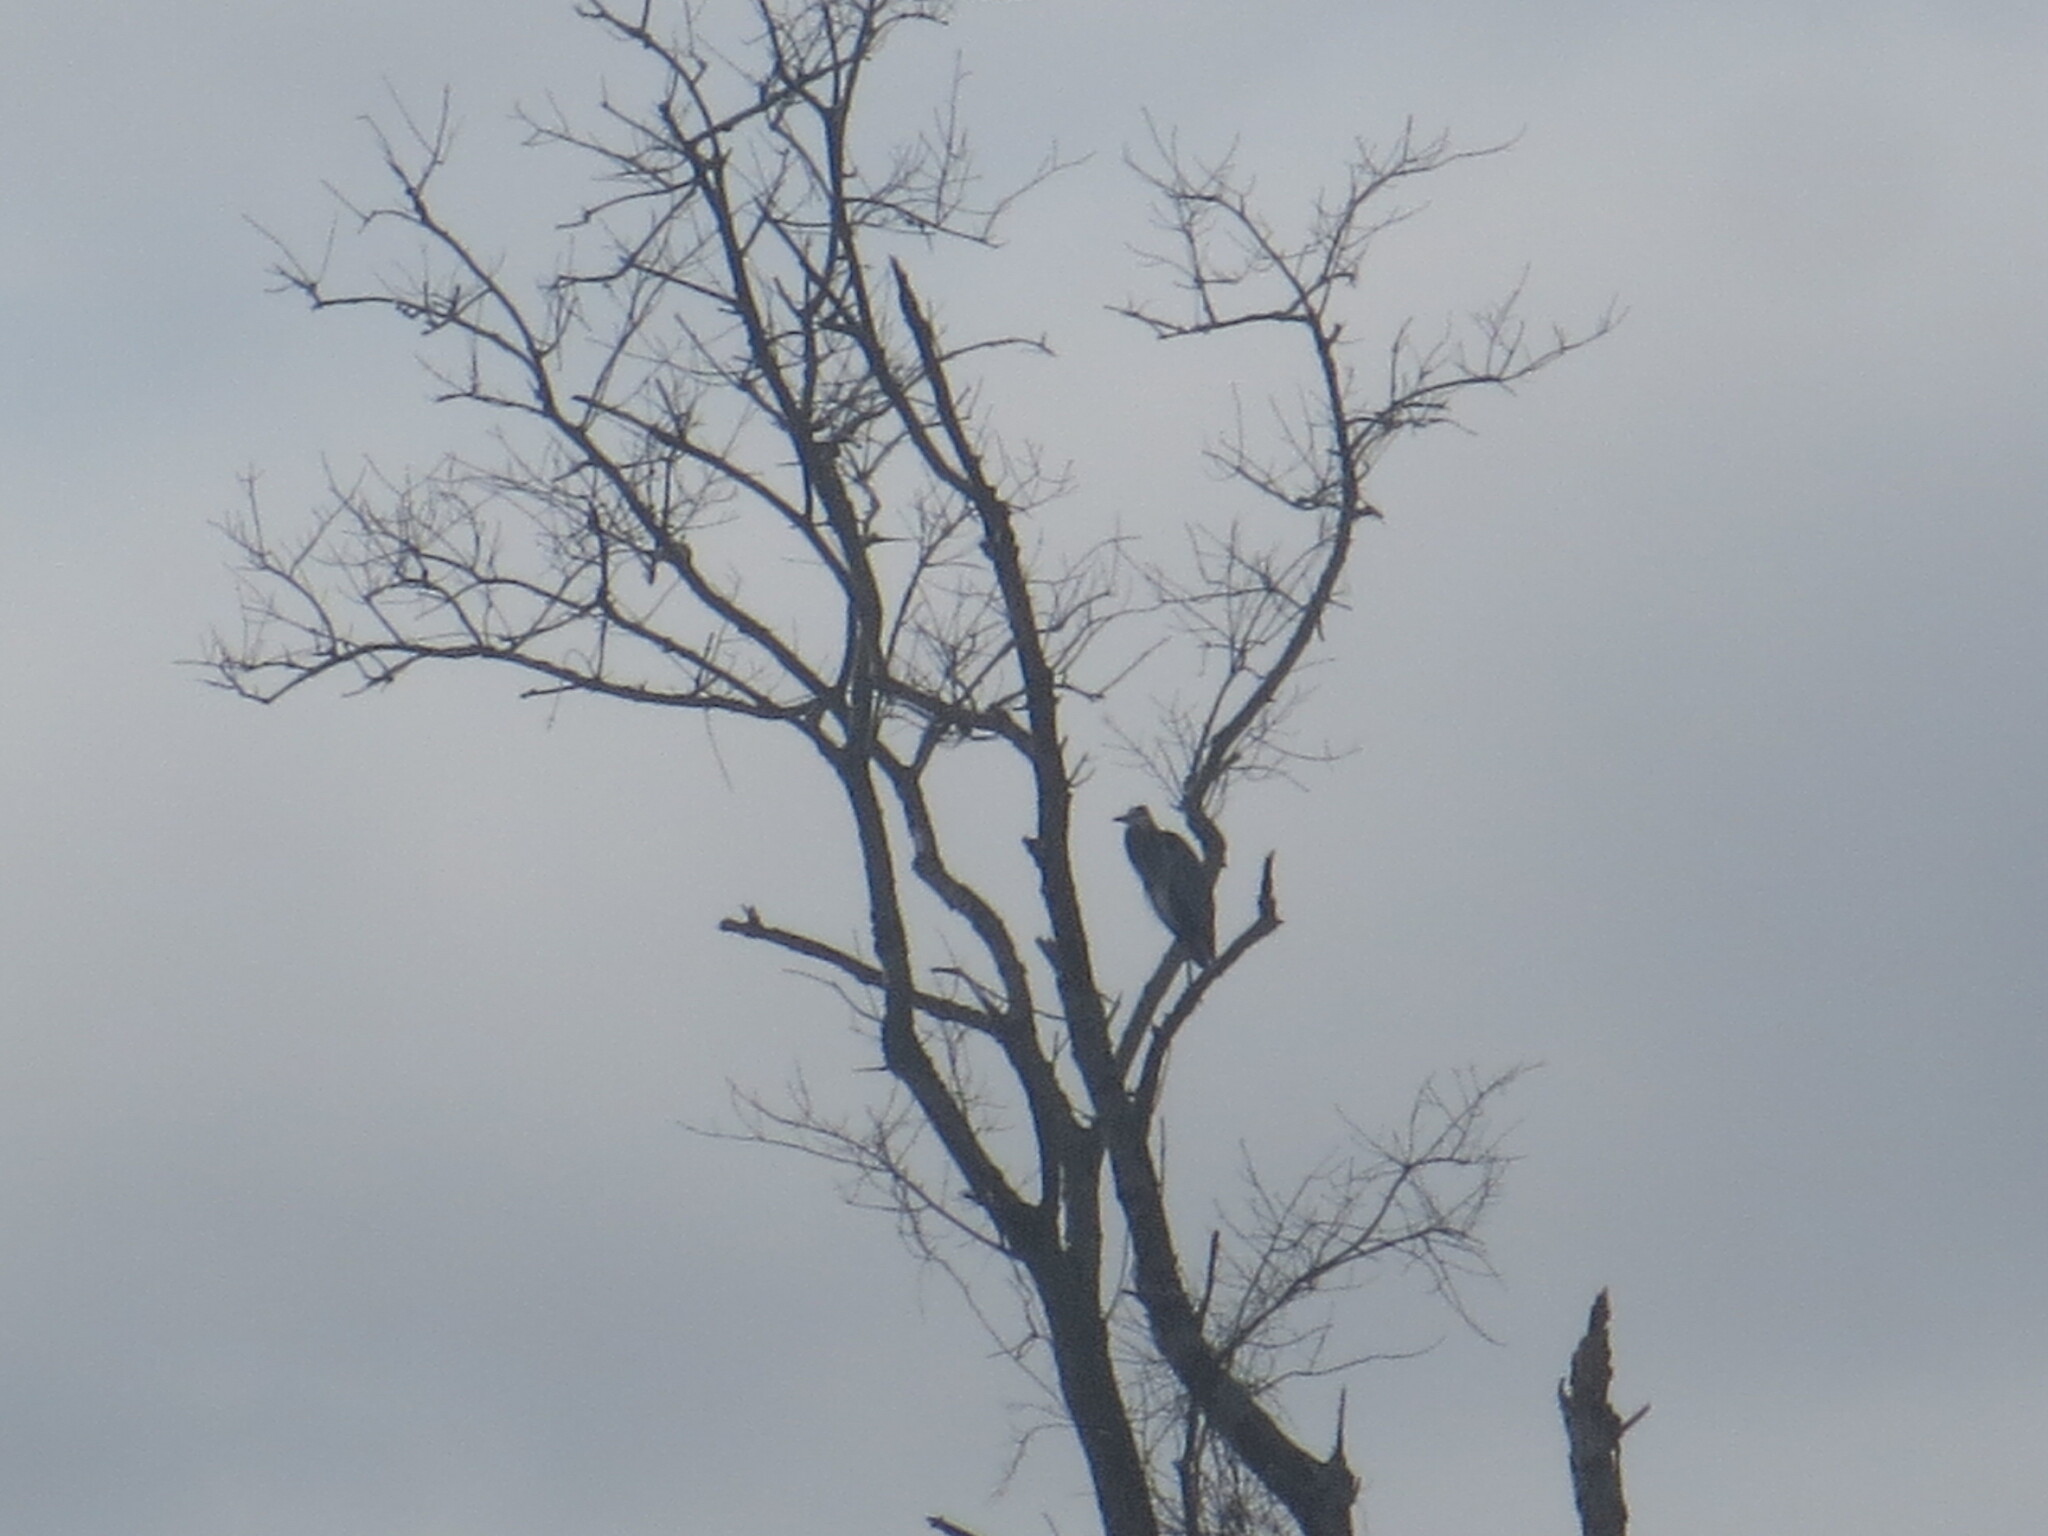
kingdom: Animalia
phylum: Chordata
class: Aves
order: Pelecaniformes
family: Ardeidae
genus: Ardea
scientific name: Ardea herodias
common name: Great blue heron
